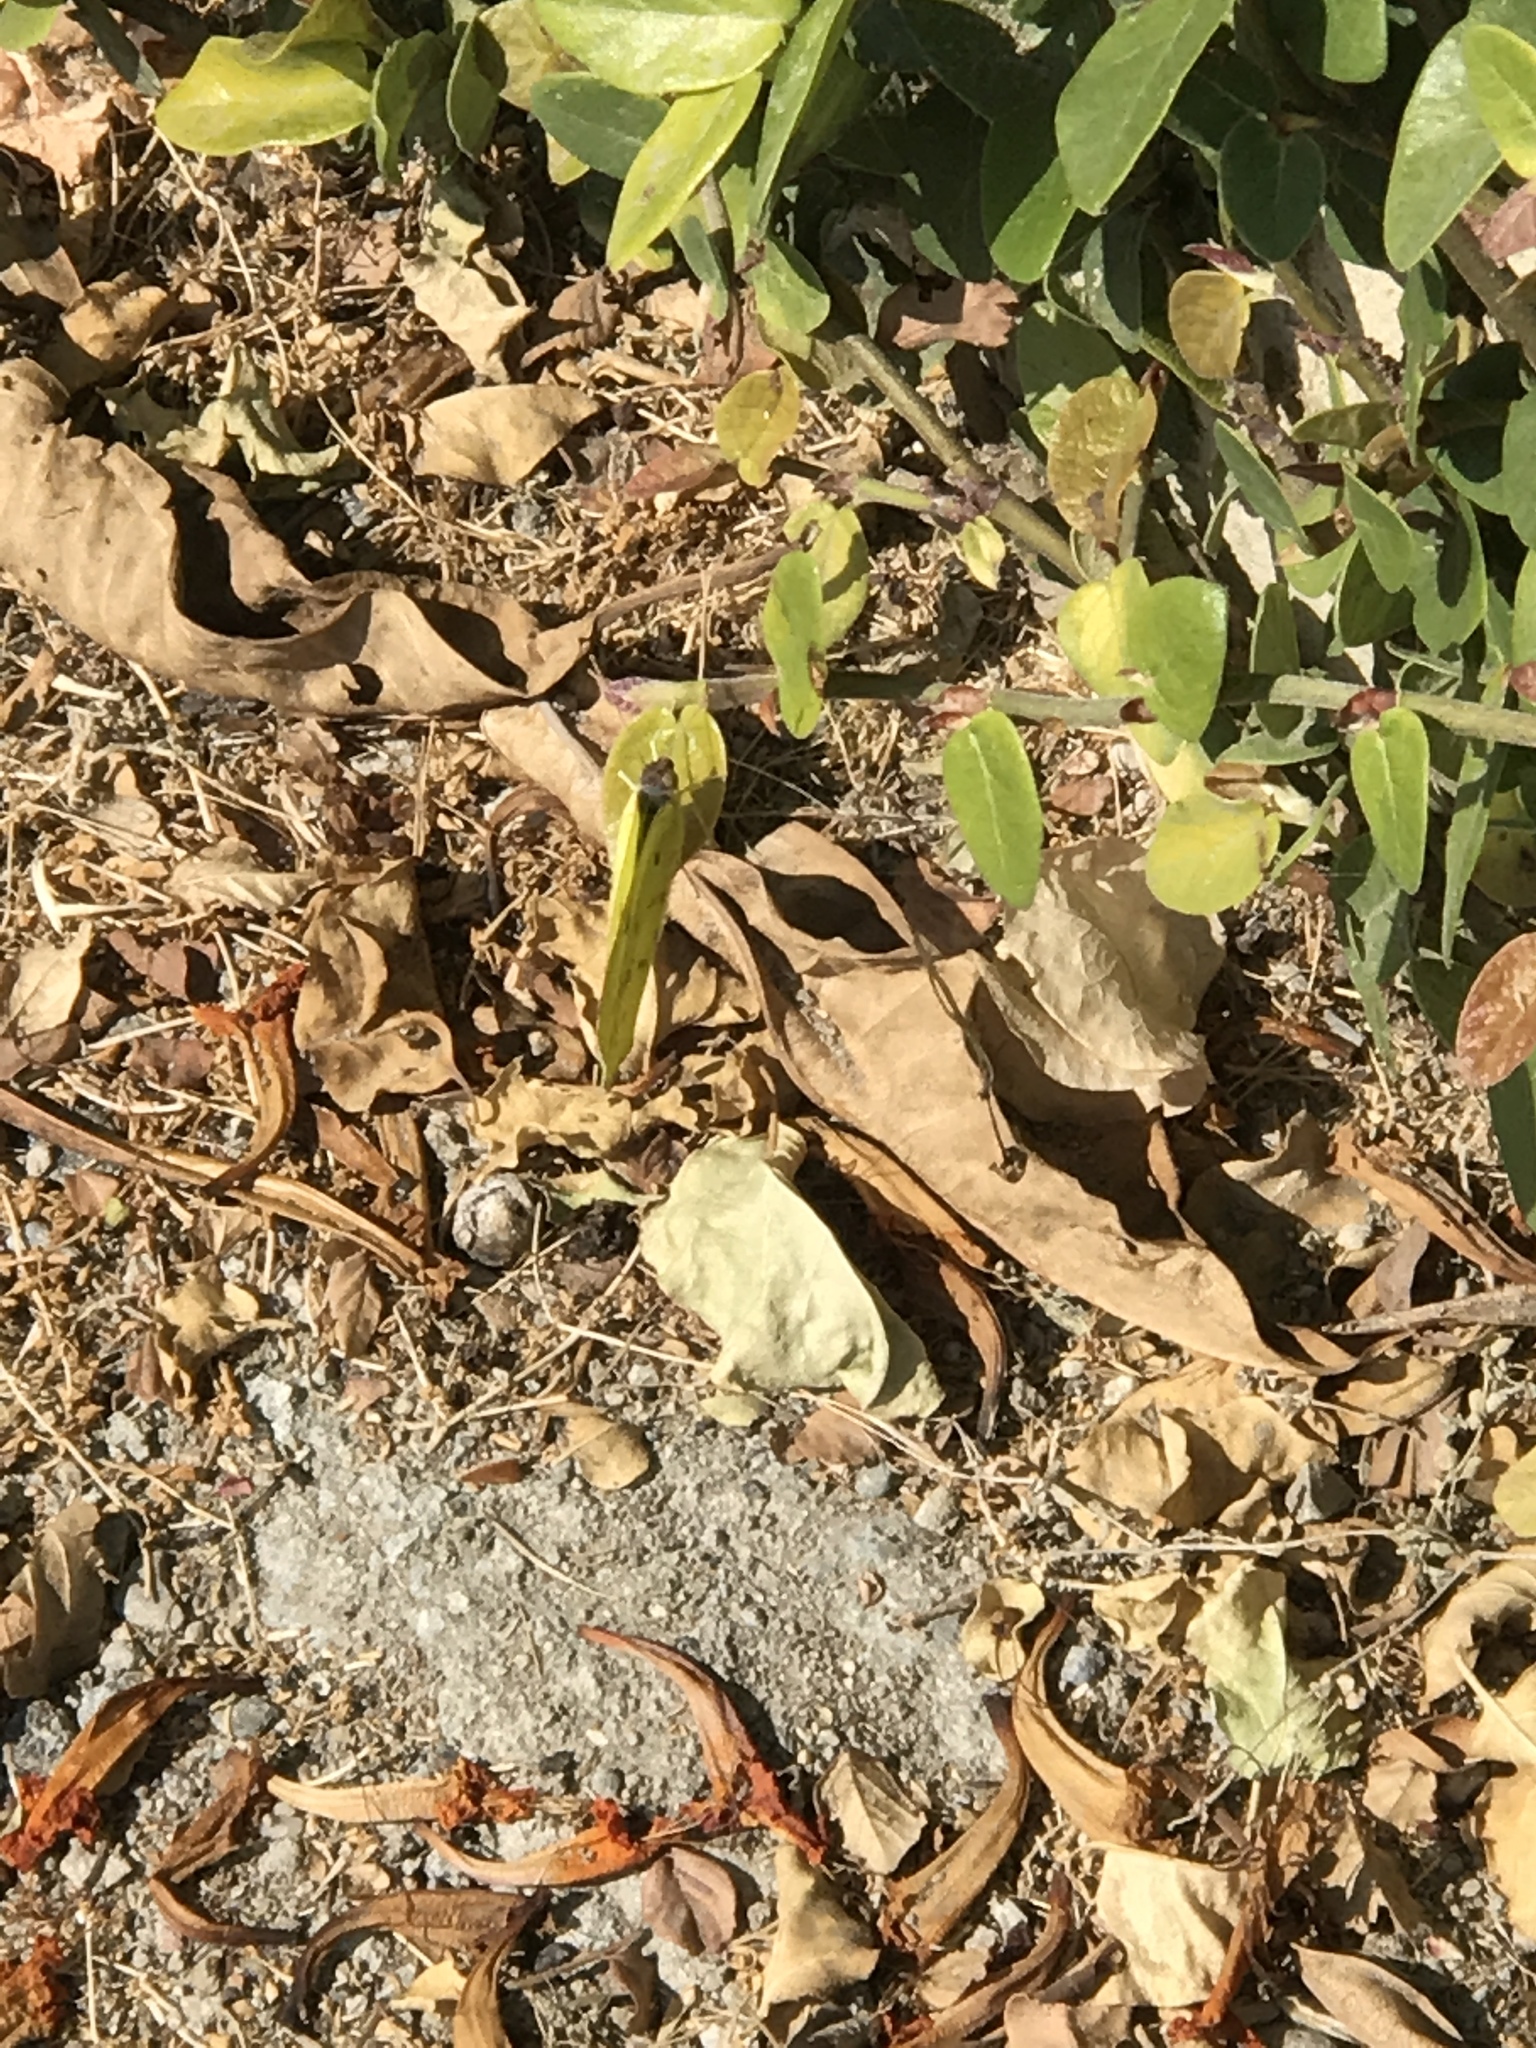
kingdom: Animalia
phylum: Arthropoda
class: Insecta
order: Lepidoptera
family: Pieridae
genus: Phoebis
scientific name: Phoebis sennae
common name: Cloudless sulphur
